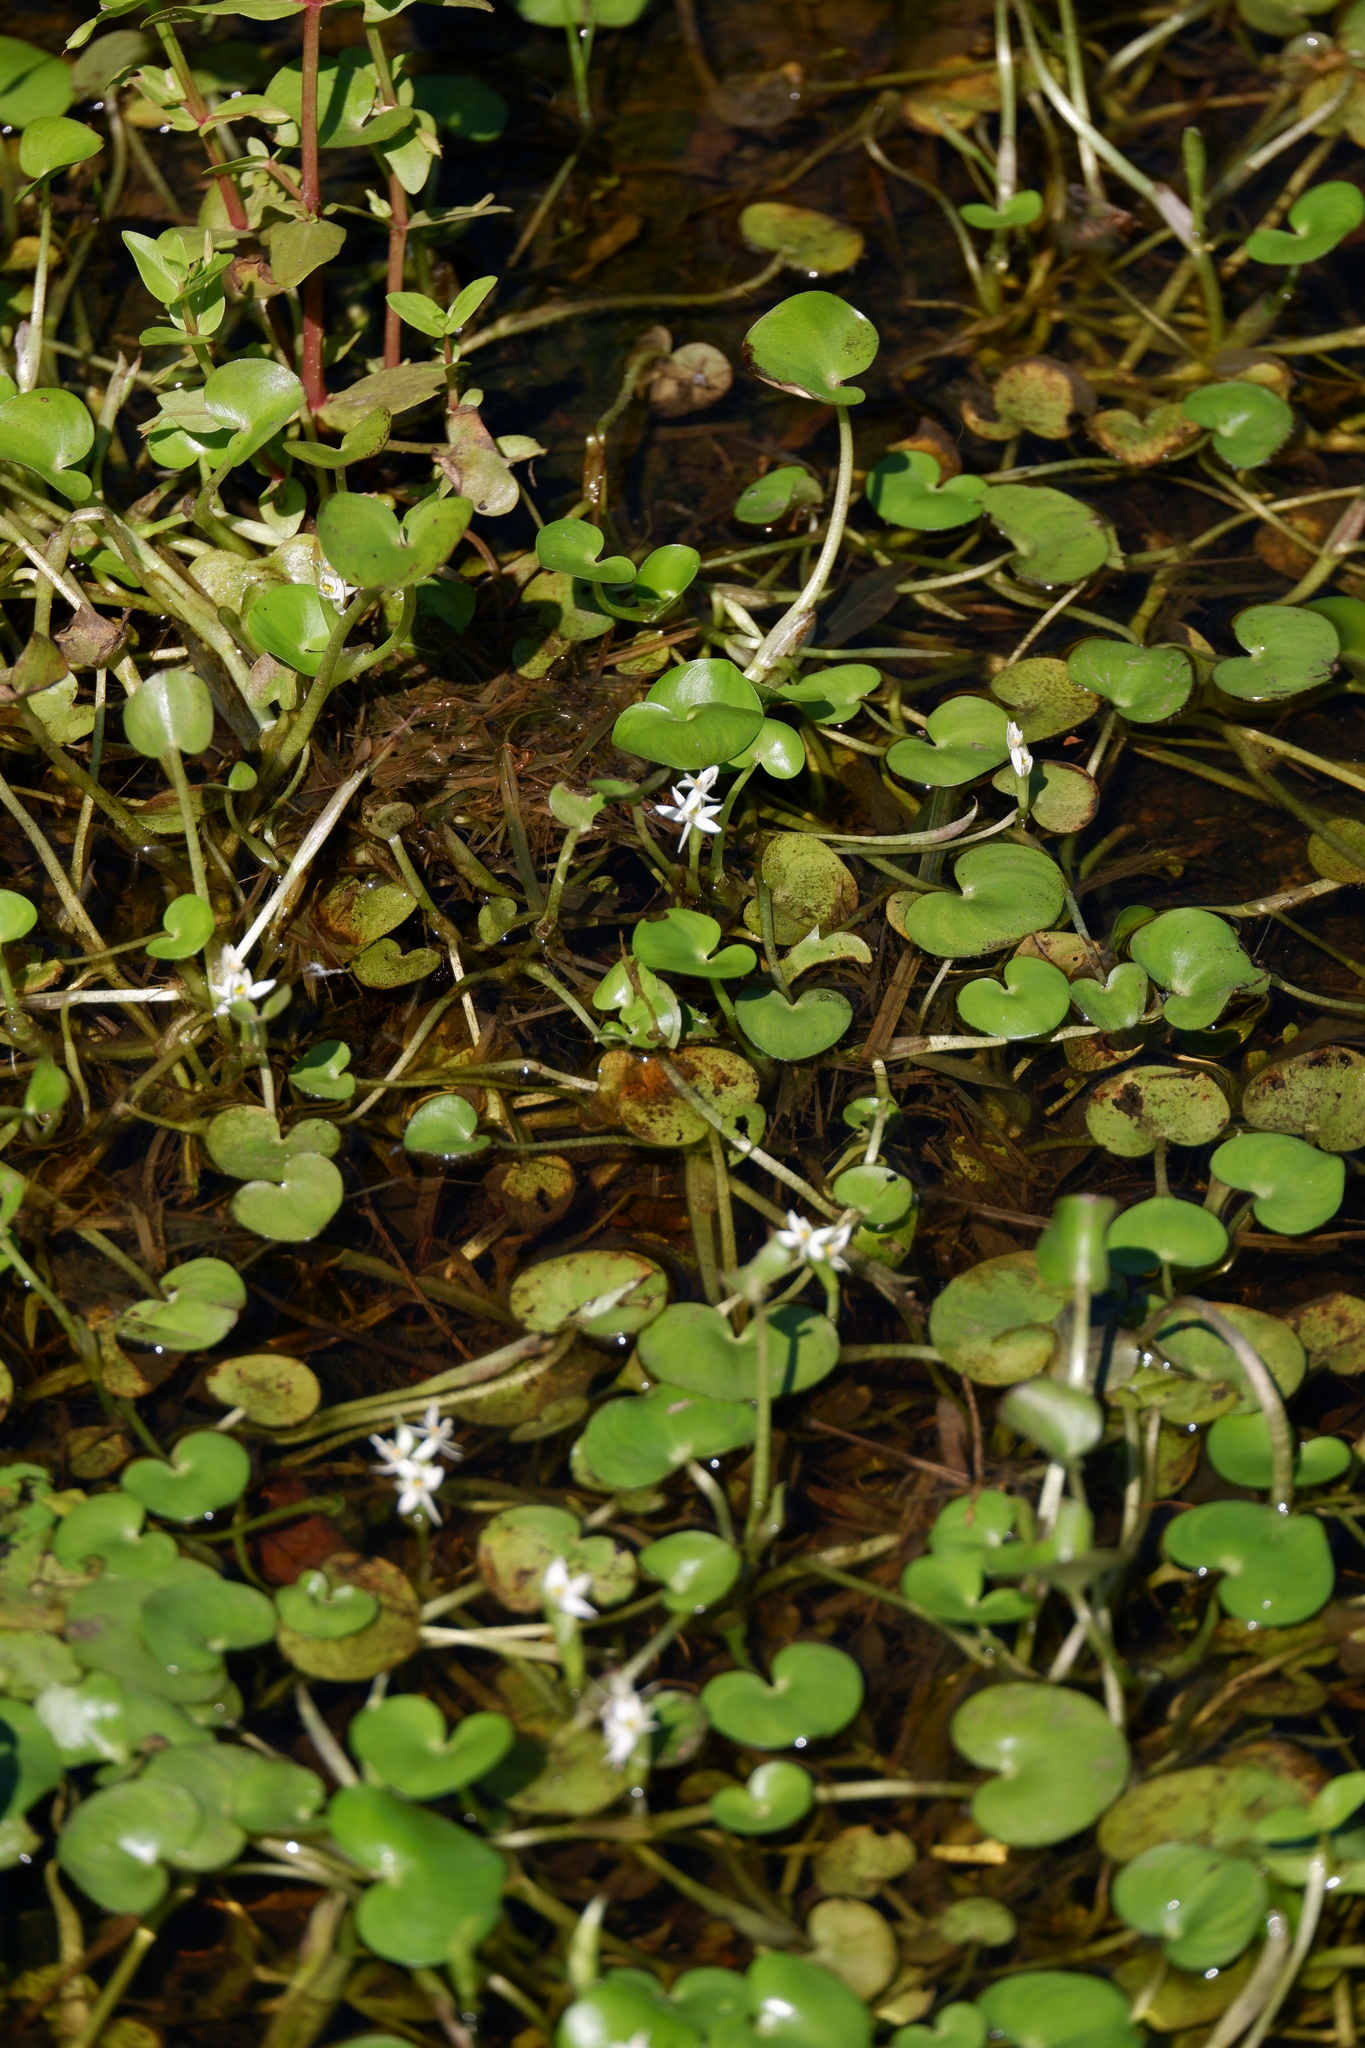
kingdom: Plantae
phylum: Tracheophyta
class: Liliopsida
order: Commelinales
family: Pontederiaceae
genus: Heteranthera
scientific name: Heteranthera reniformis
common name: Kidneyleaf mudplantain
